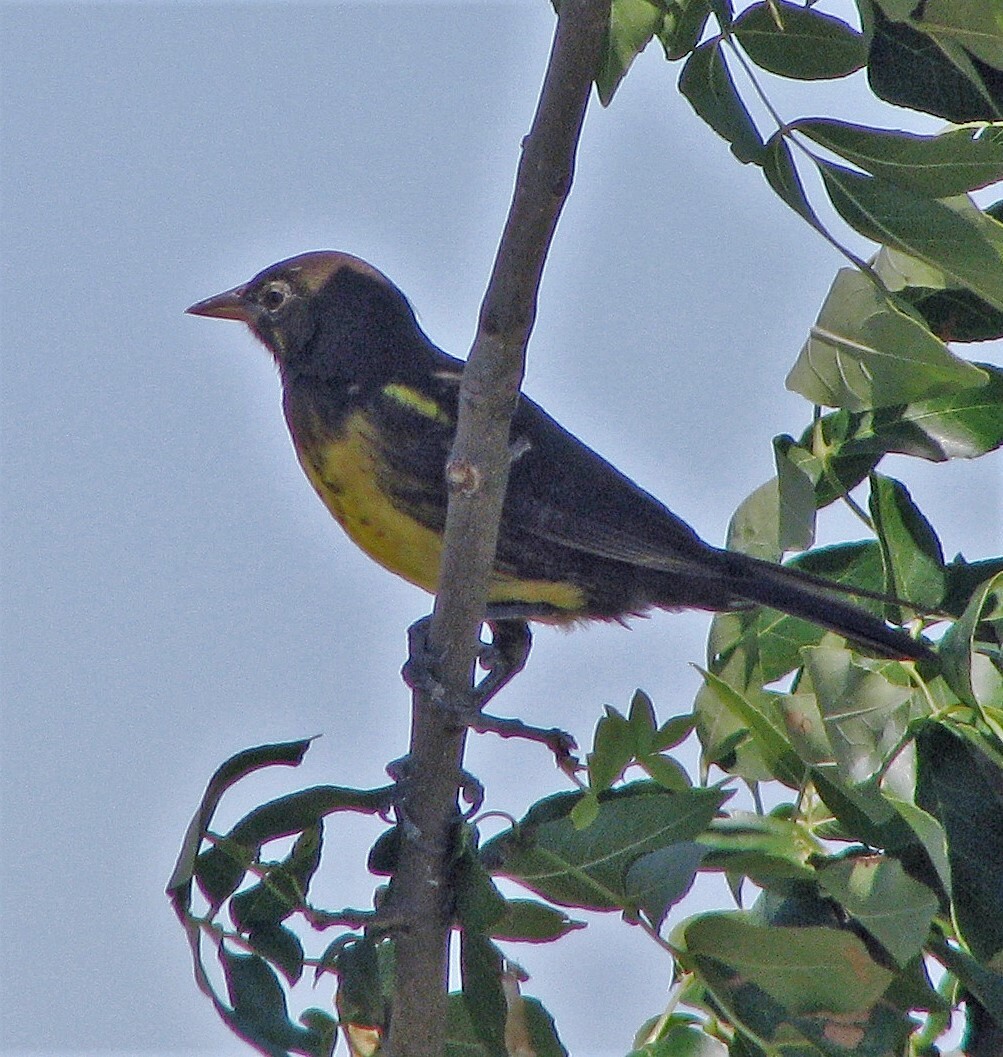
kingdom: Animalia
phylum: Chordata
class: Aves
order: Passeriformes
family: Icteridae
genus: Pseudoleistes
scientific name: Pseudoleistes virescens
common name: Brown-and-yellow marshbird
